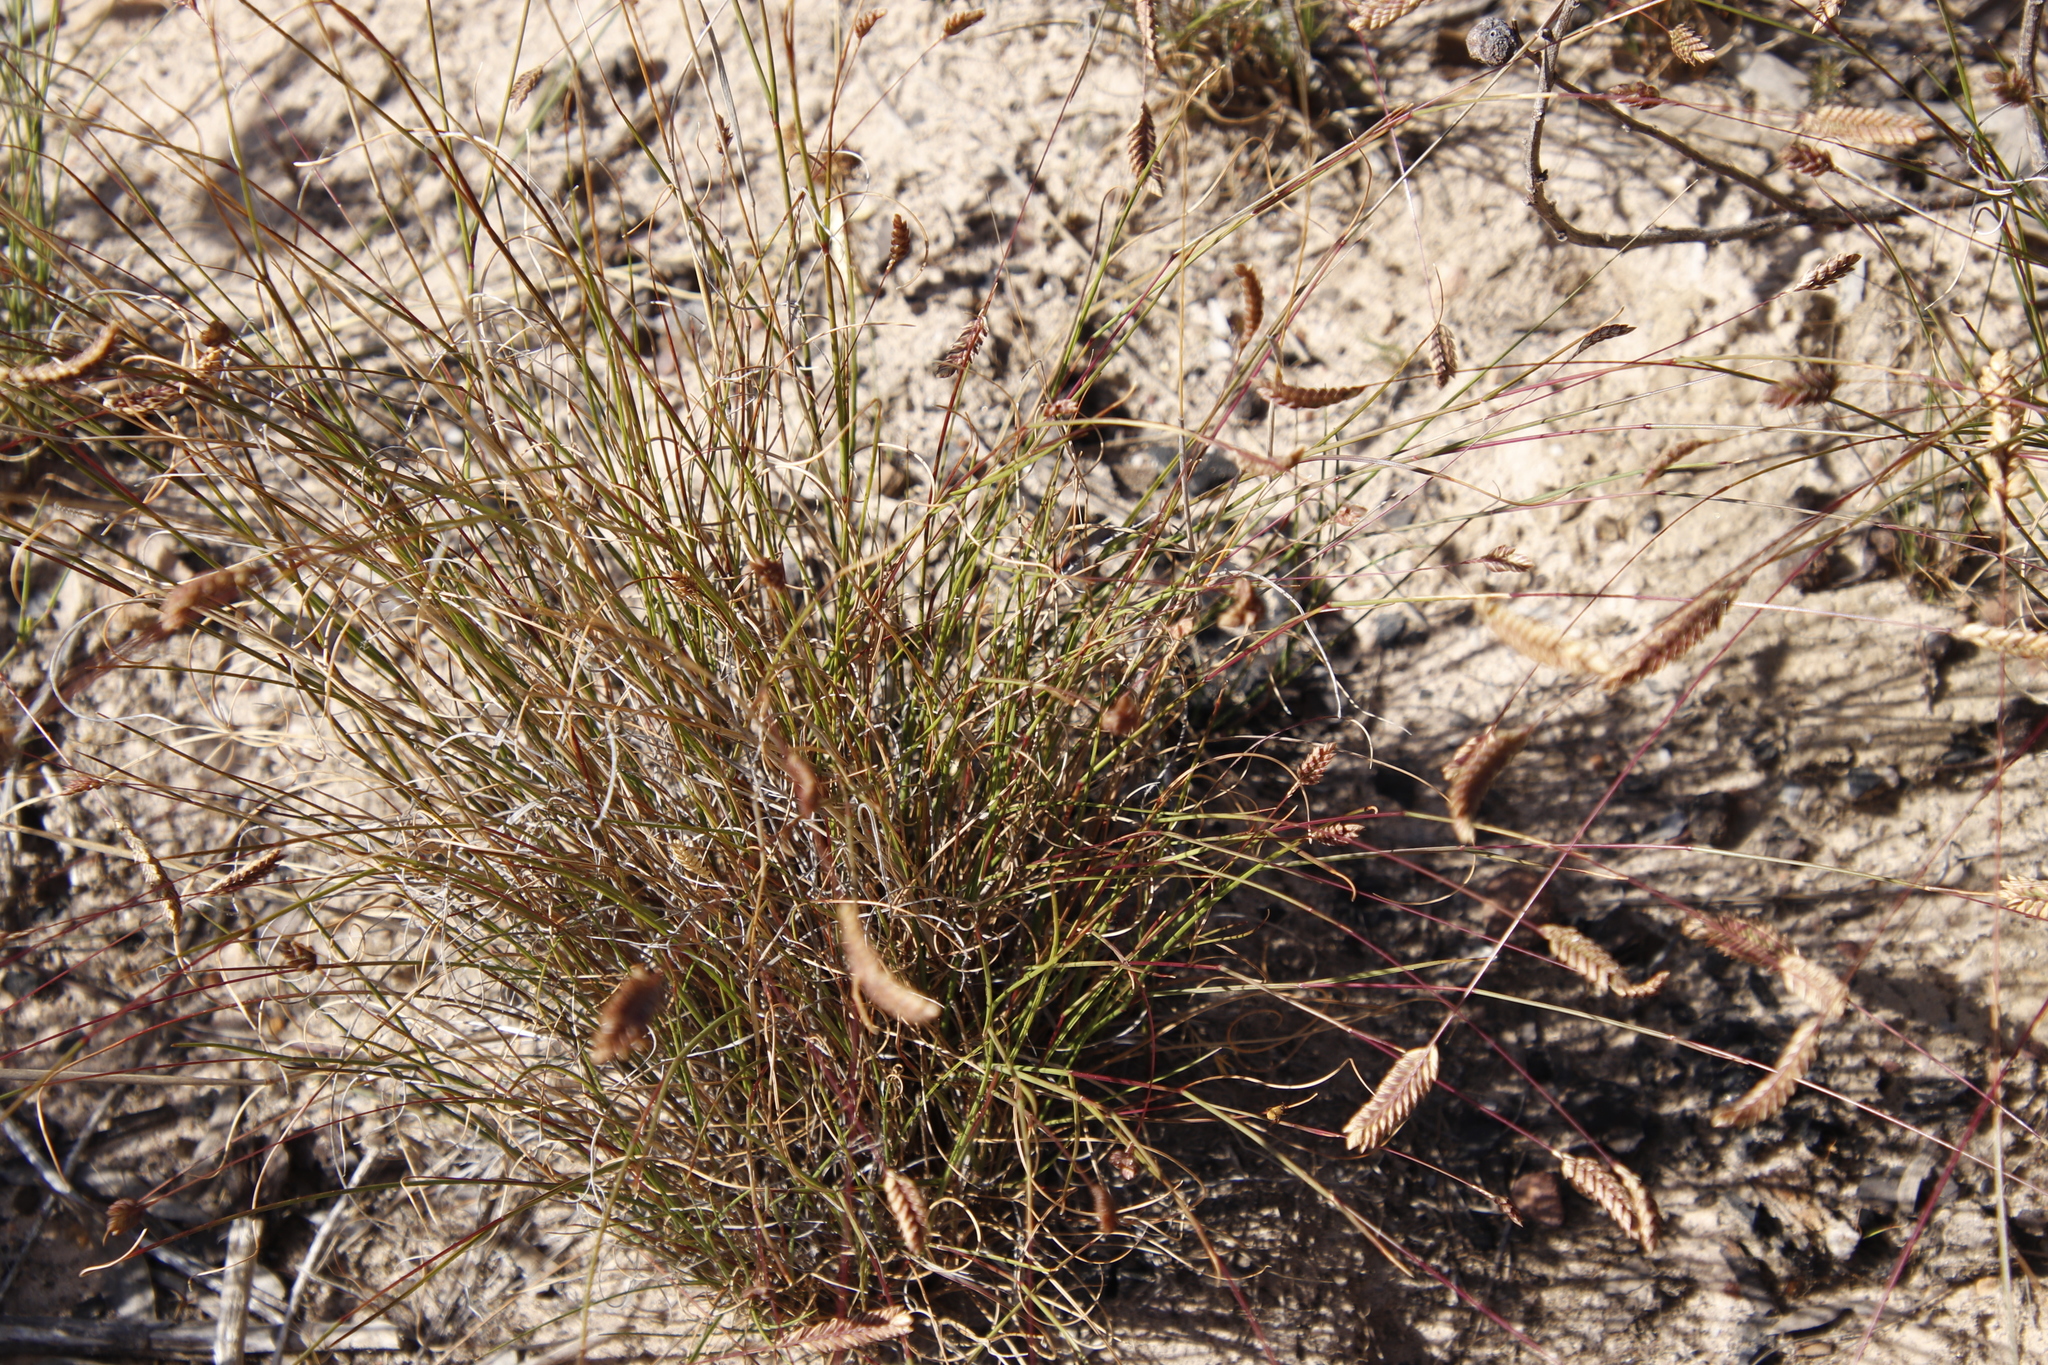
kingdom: Plantae
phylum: Tracheophyta
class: Liliopsida
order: Poales
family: Poaceae
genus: Tribolium
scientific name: Tribolium uniolae
